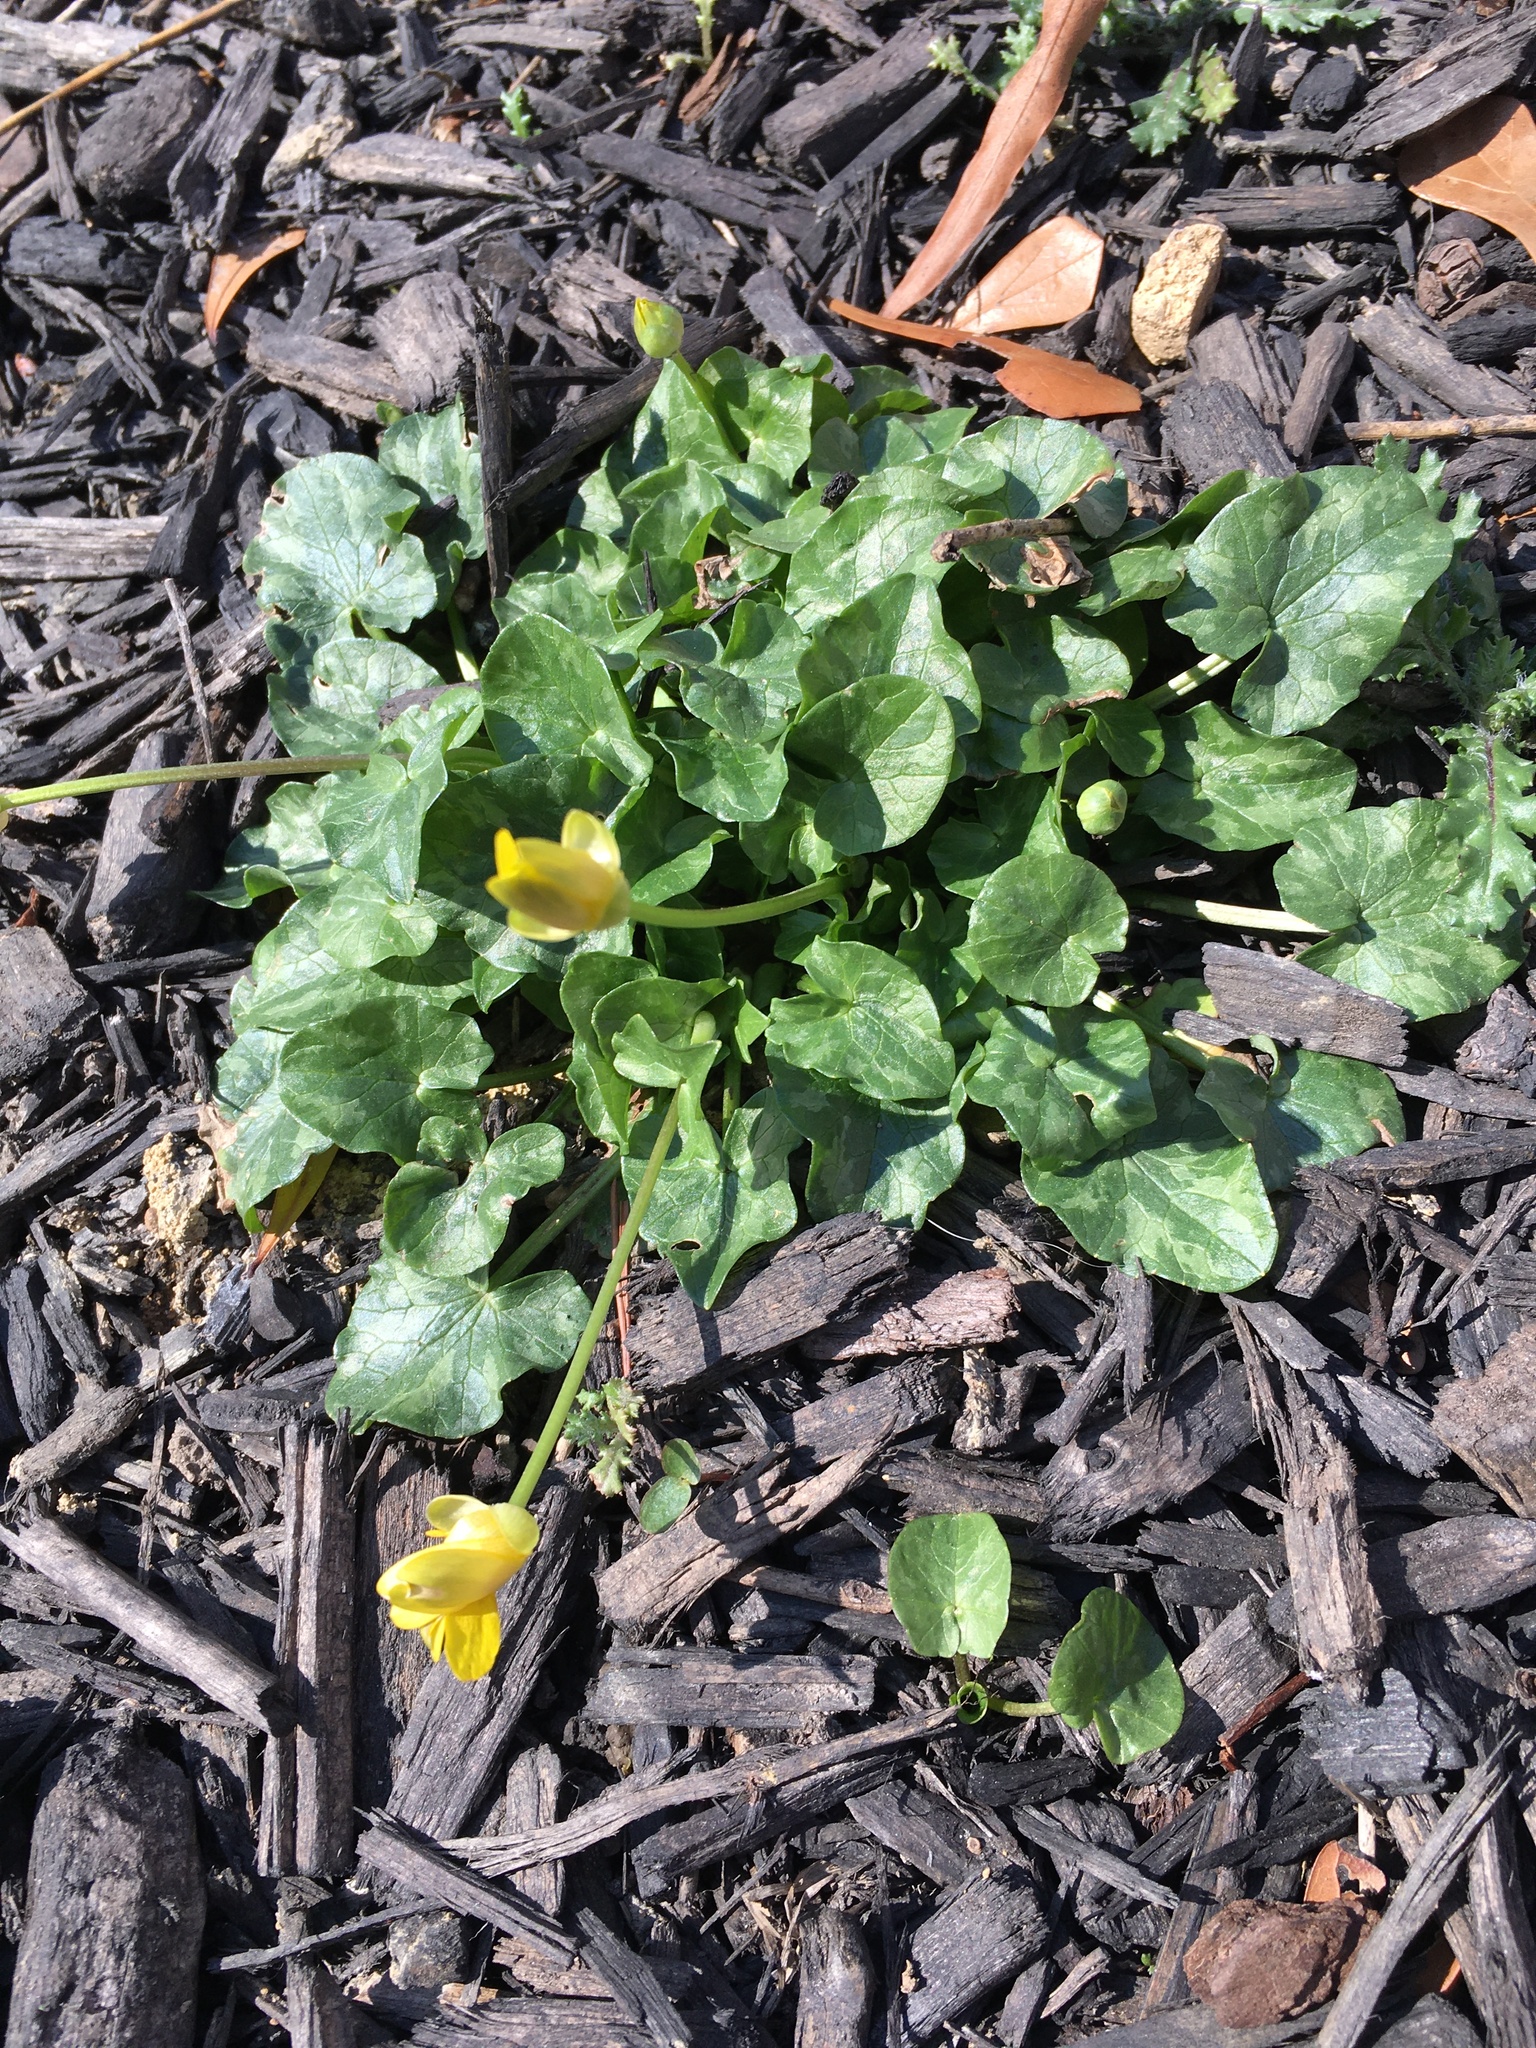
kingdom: Plantae
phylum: Tracheophyta
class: Magnoliopsida
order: Ranunculales
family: Ranunculaceae
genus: Ficaria
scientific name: Ficaria verna
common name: Lesser celandine
